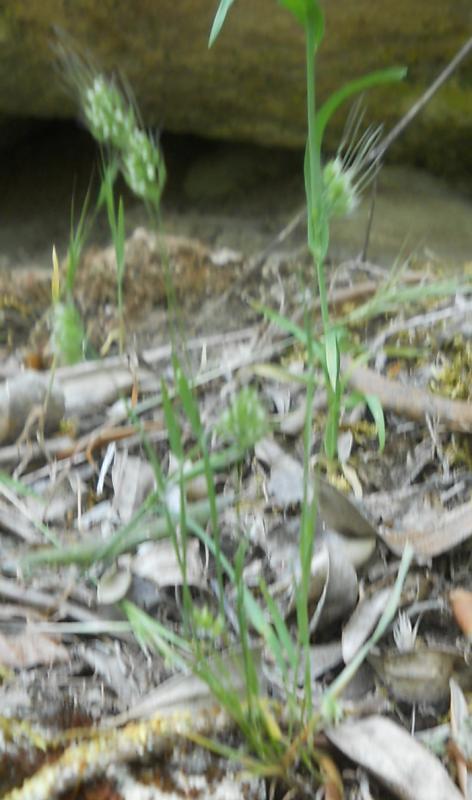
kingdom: Plantae
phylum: Tracheophyta
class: Liliopsida
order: Poales
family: Poaceae
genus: Cynosurus
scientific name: Cynosurus echinatus
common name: Rough dog's-tail
